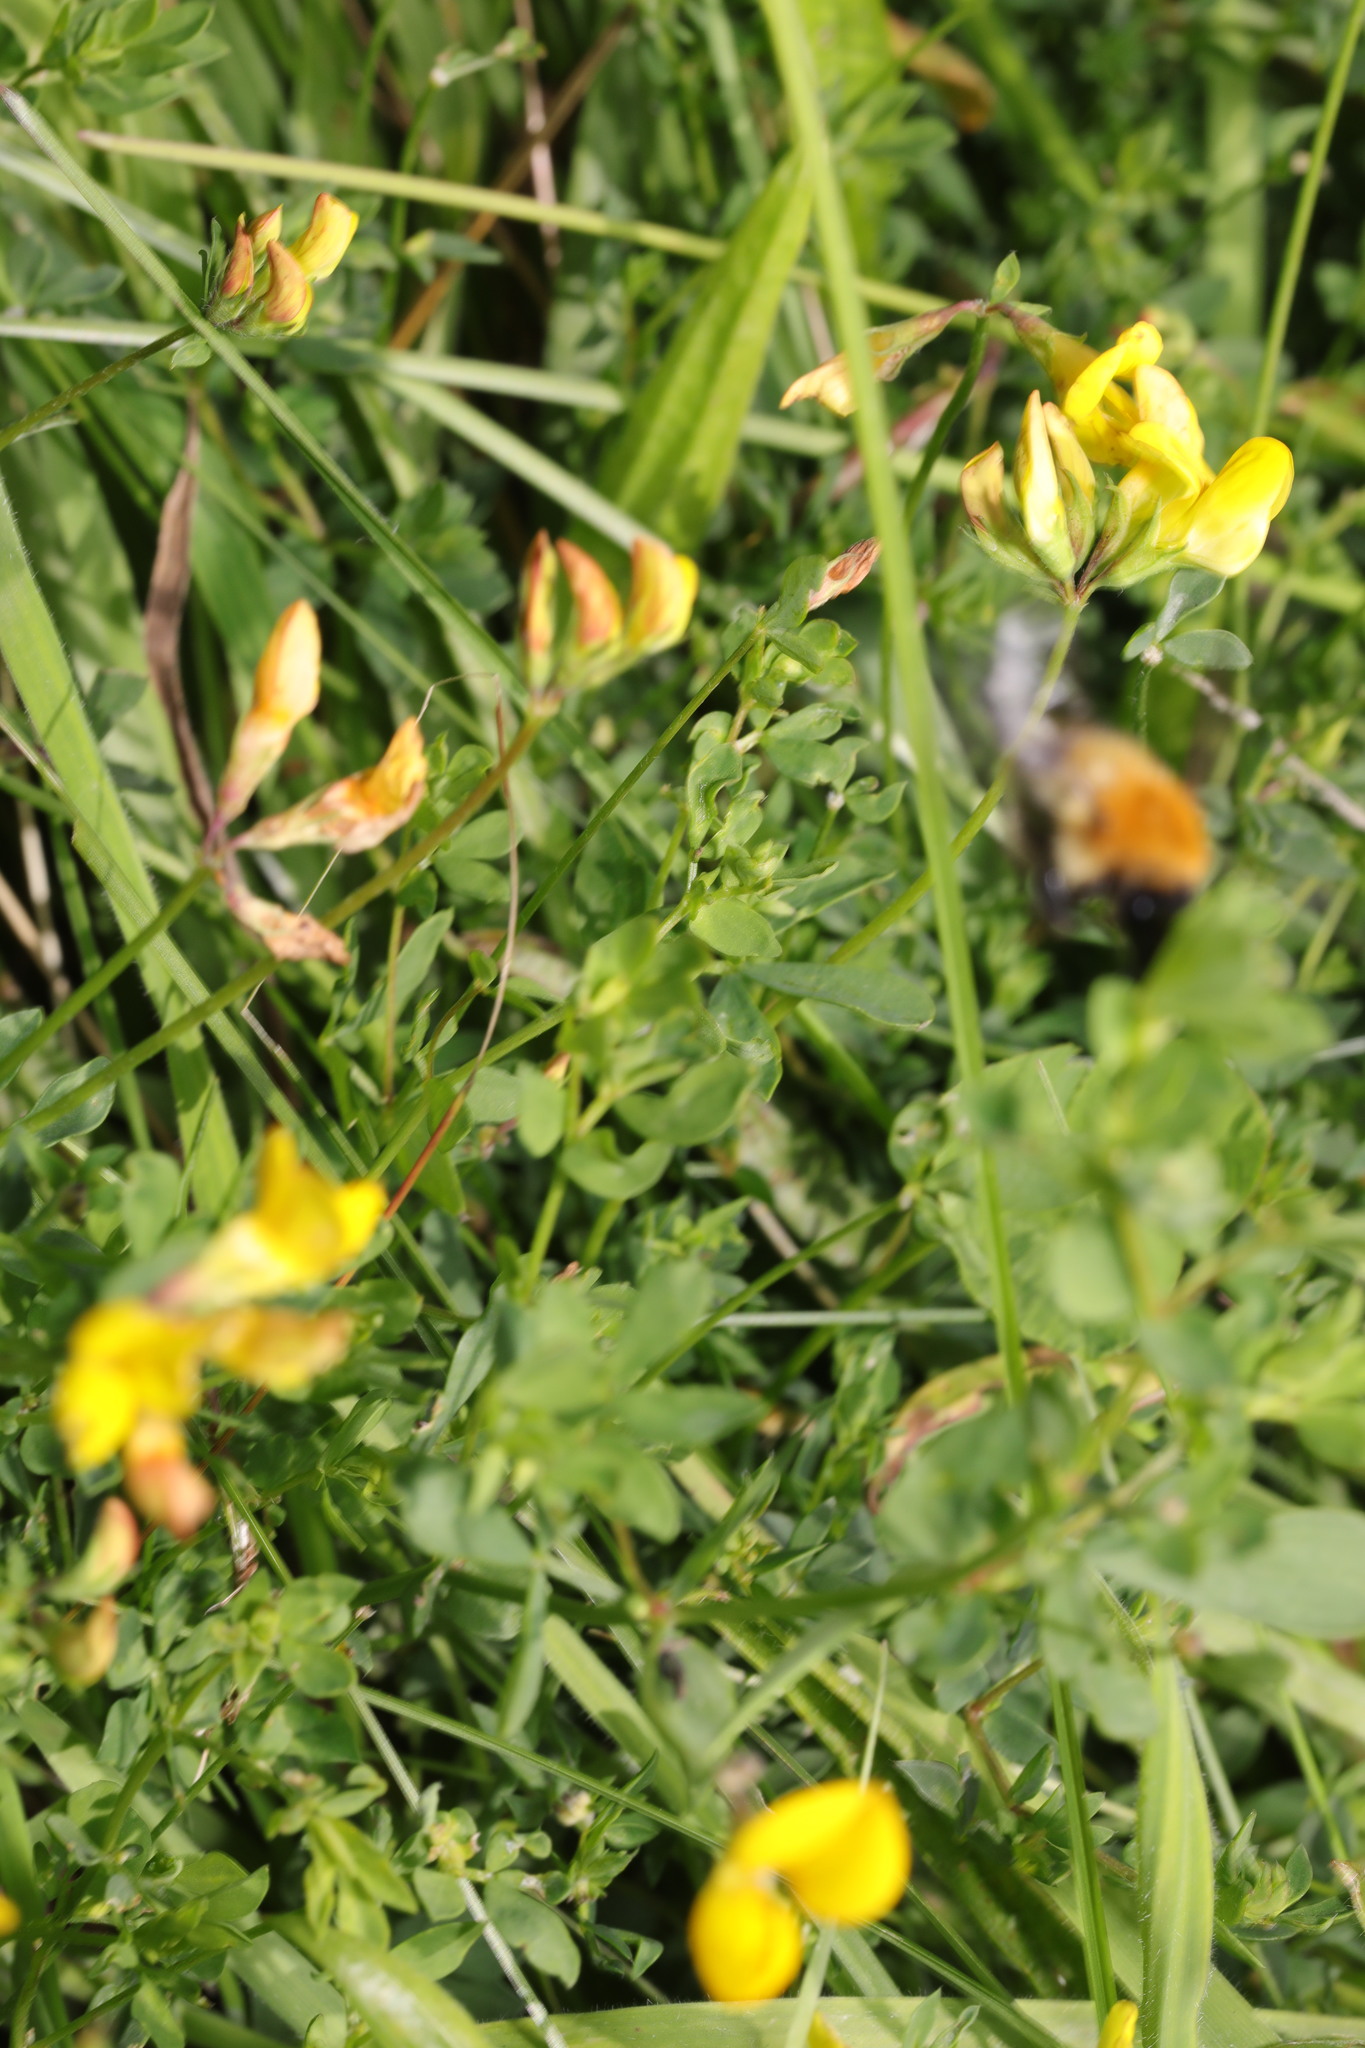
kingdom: Plantae
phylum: Tracheophyta
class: Magnoliopsida
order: Fabales
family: Fabaceae
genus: Lotus
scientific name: Lotus corniculatus
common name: Common bird's-foot-trefoil
